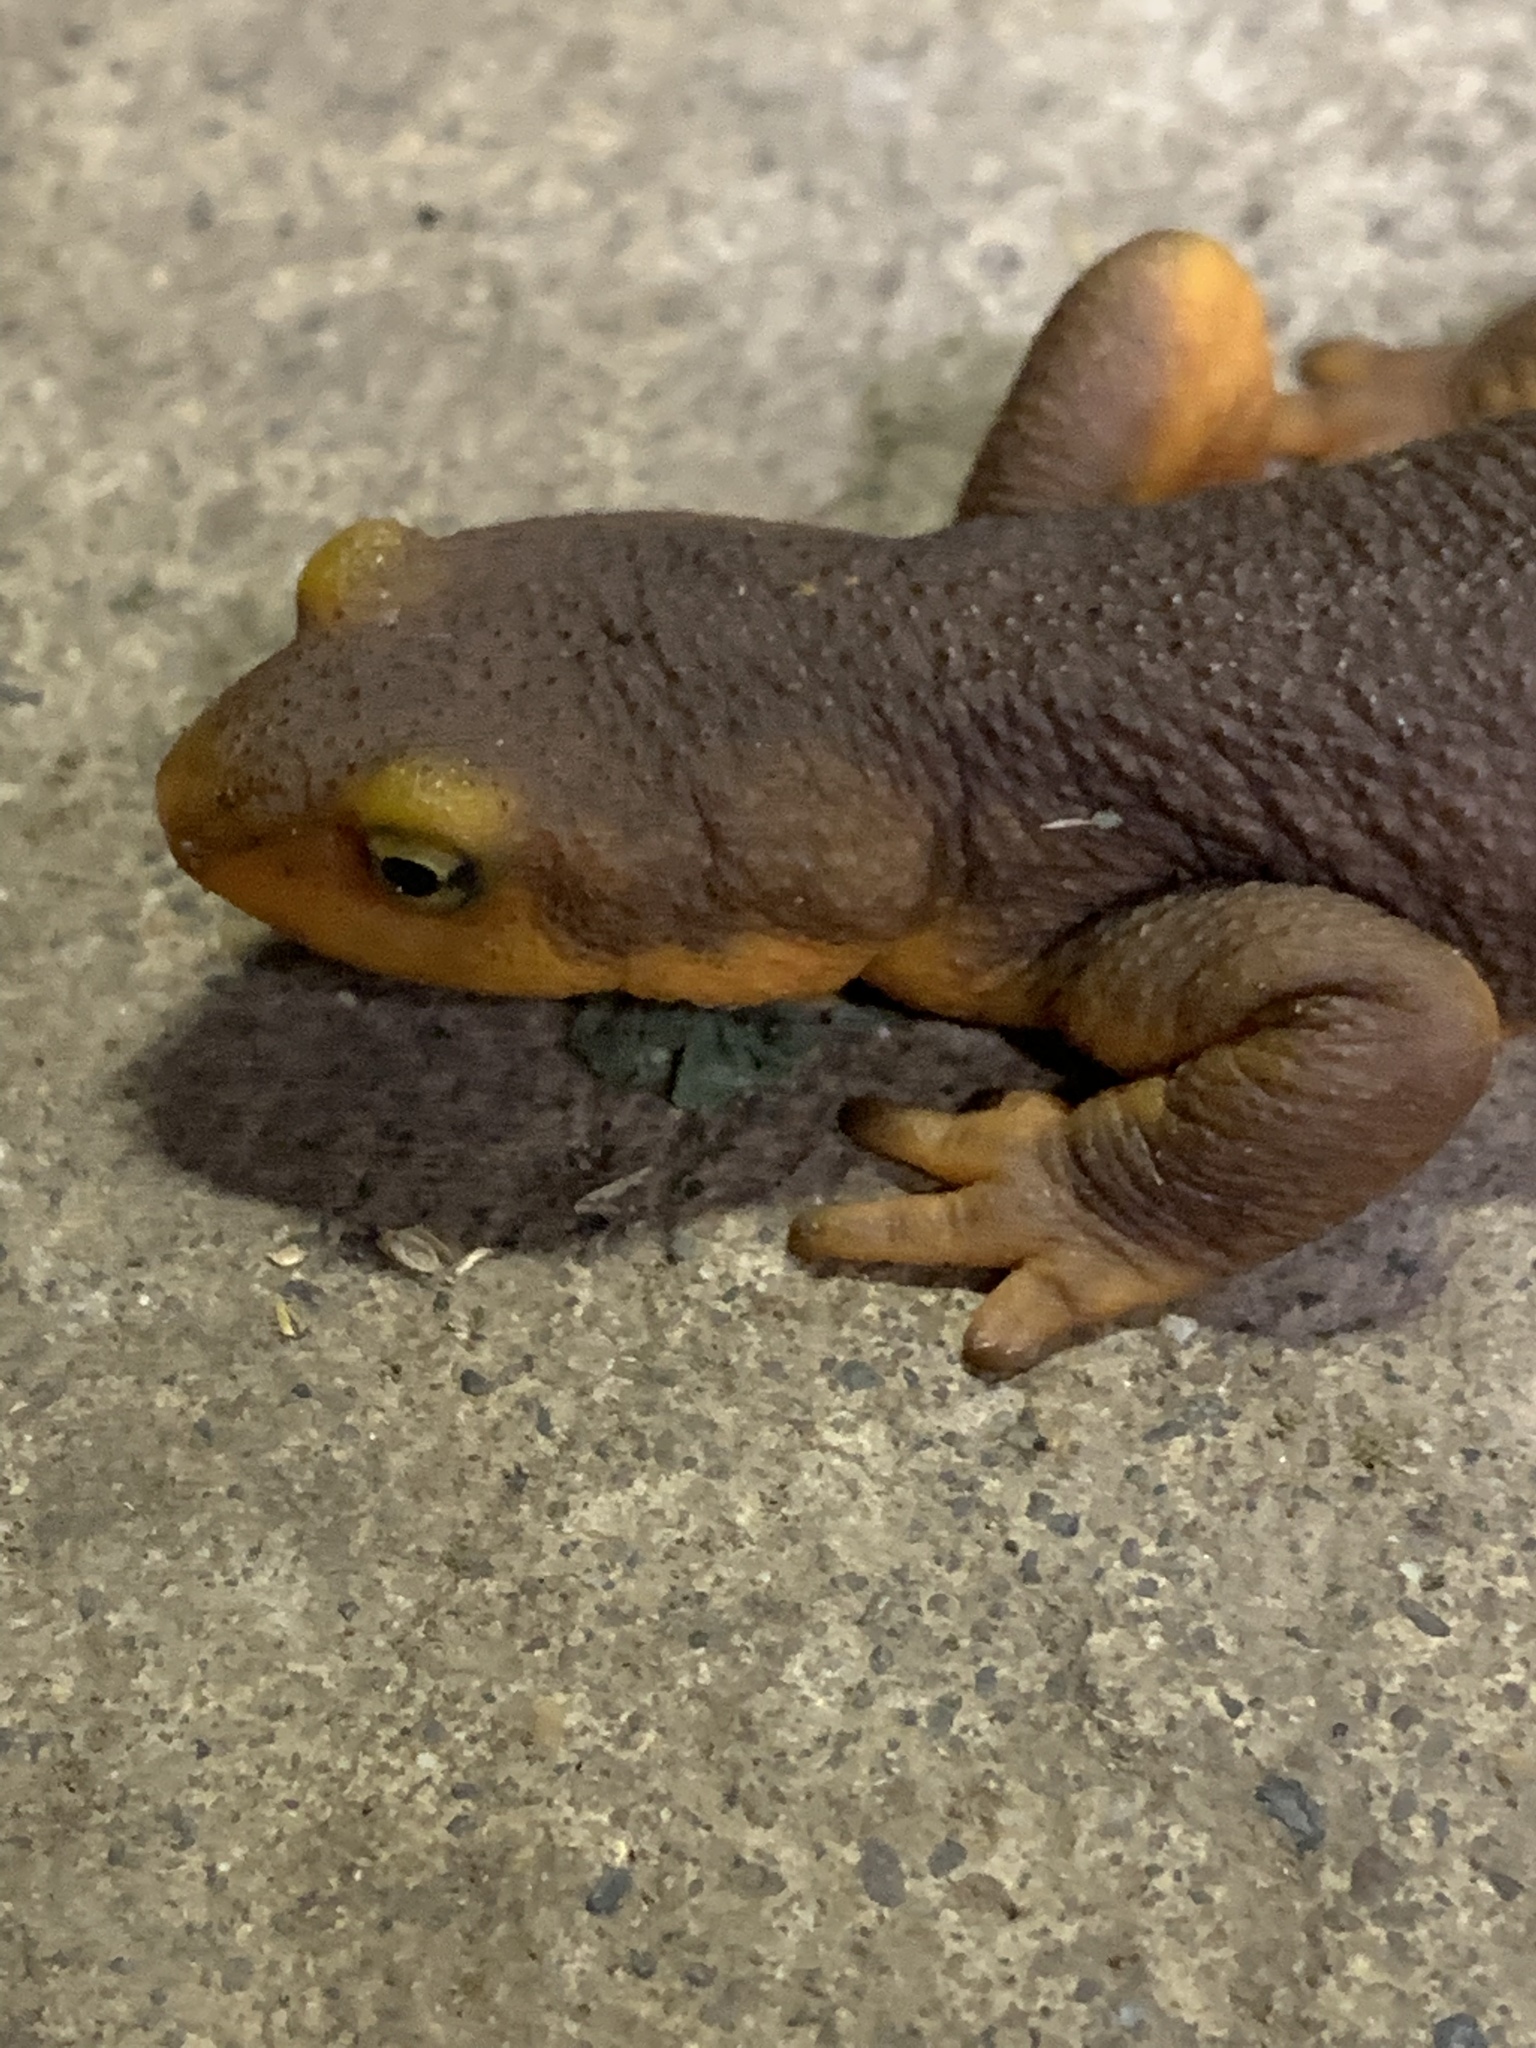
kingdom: Animalia
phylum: Chordata
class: Amphibia
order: Caudata
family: Salamandridae
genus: Taricha
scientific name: Taricha torosa
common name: California newt
